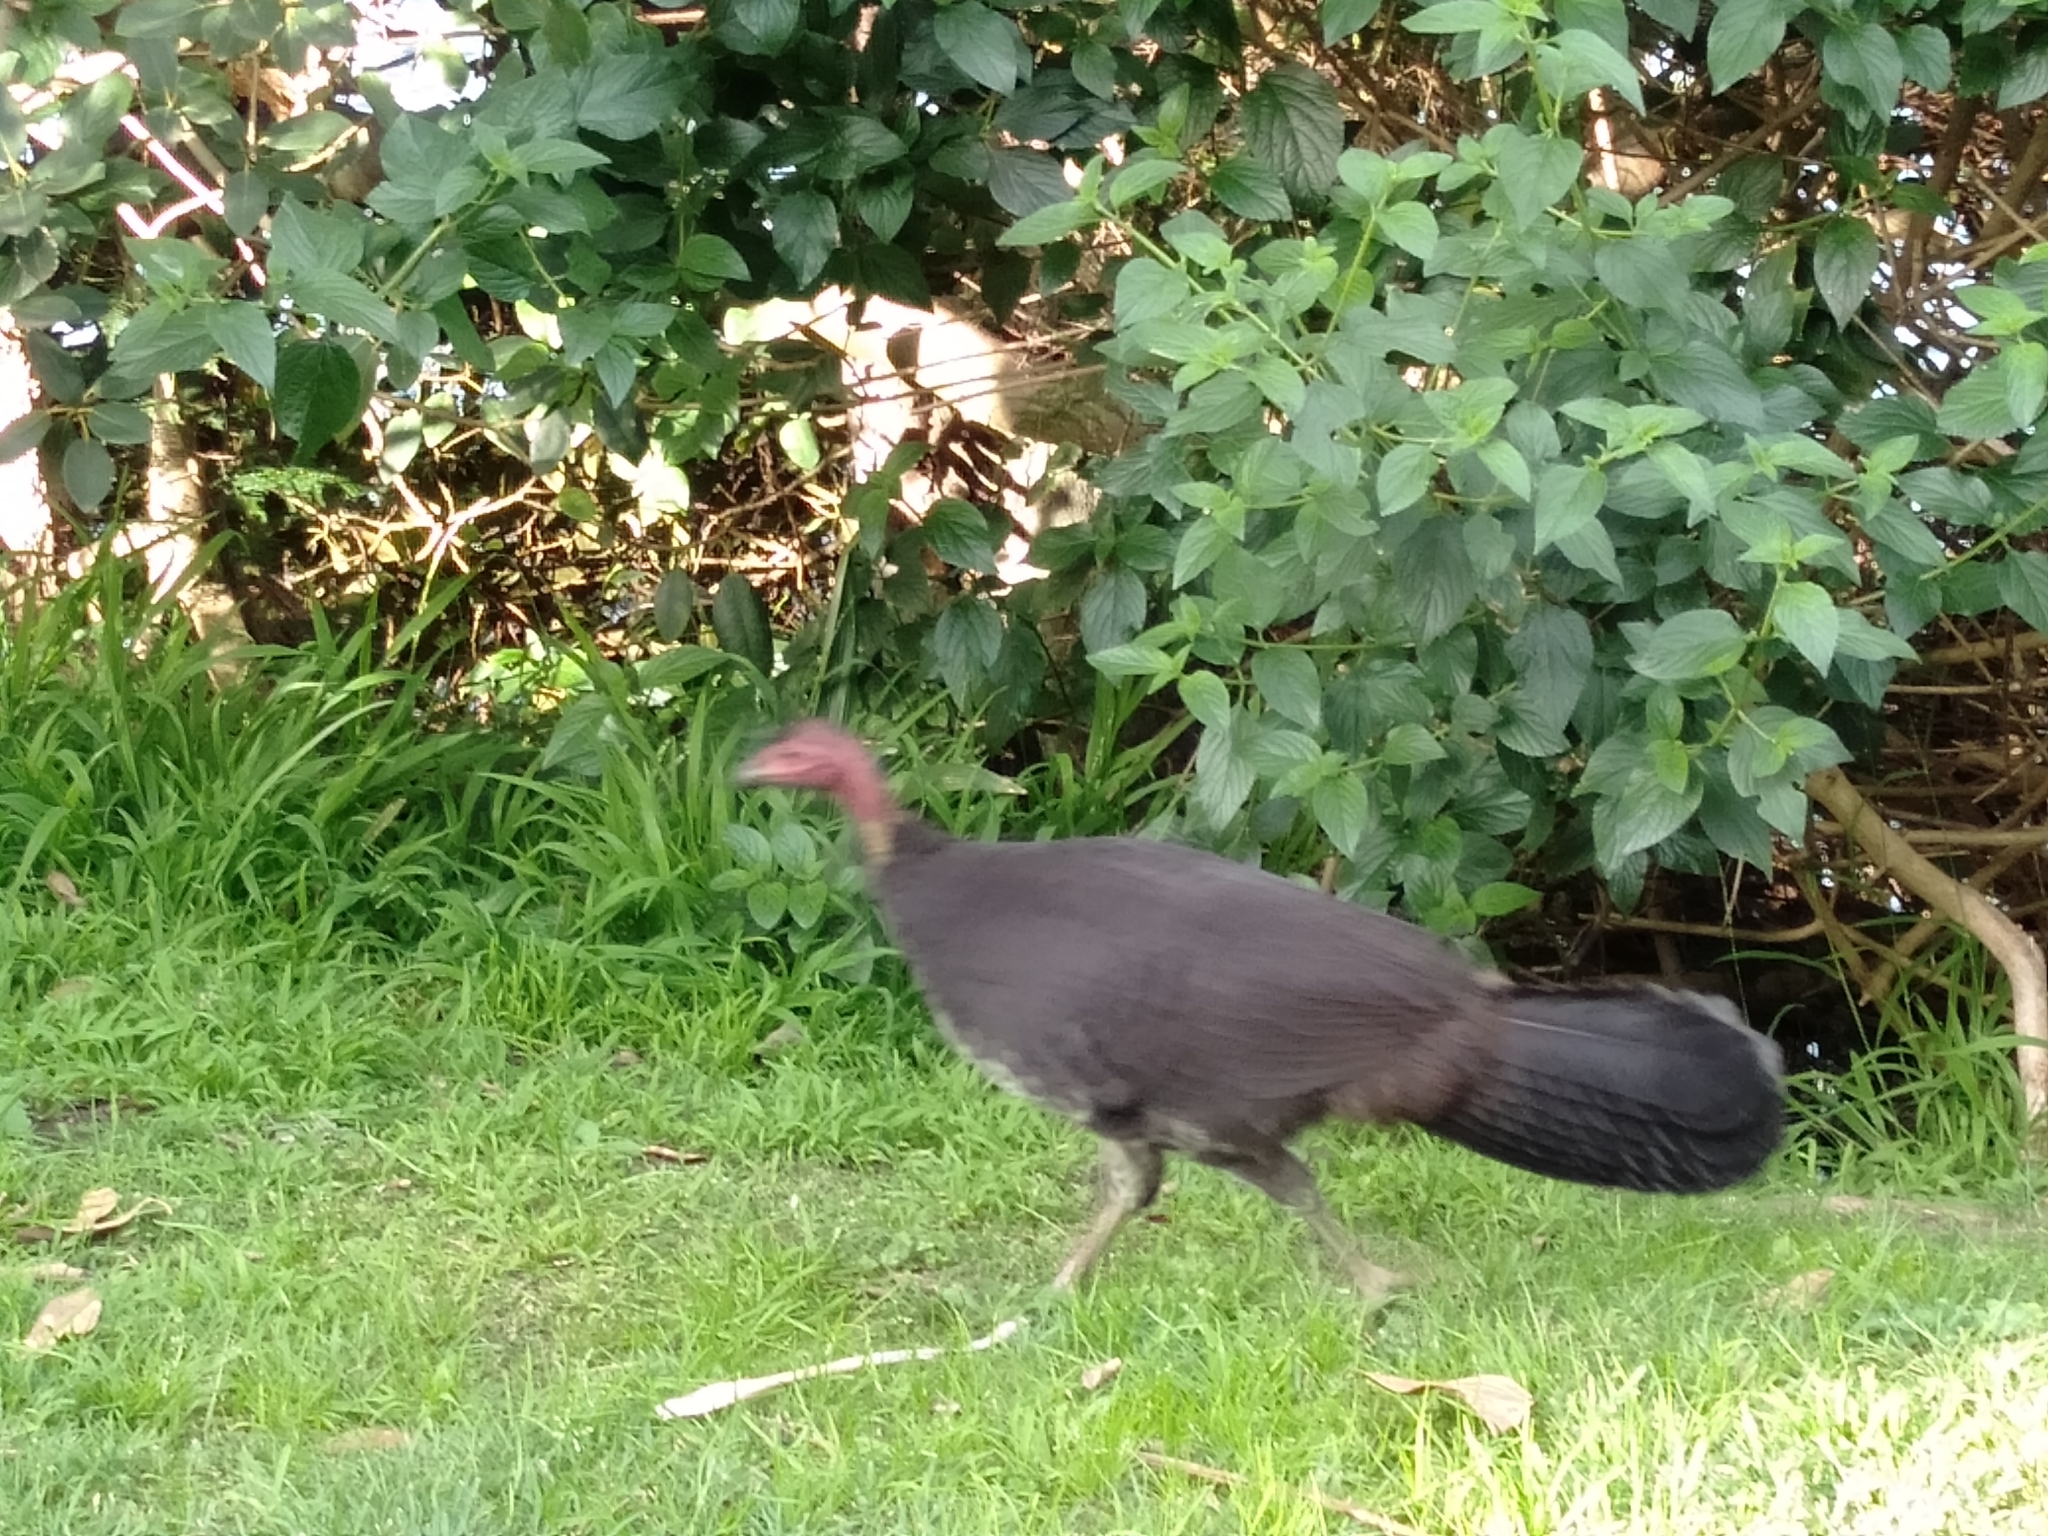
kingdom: Animalia
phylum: Chordata
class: Aves
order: Galliformes
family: Megapodiidae
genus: Alectura
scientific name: Alectura lathami
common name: Australian brushturkey
